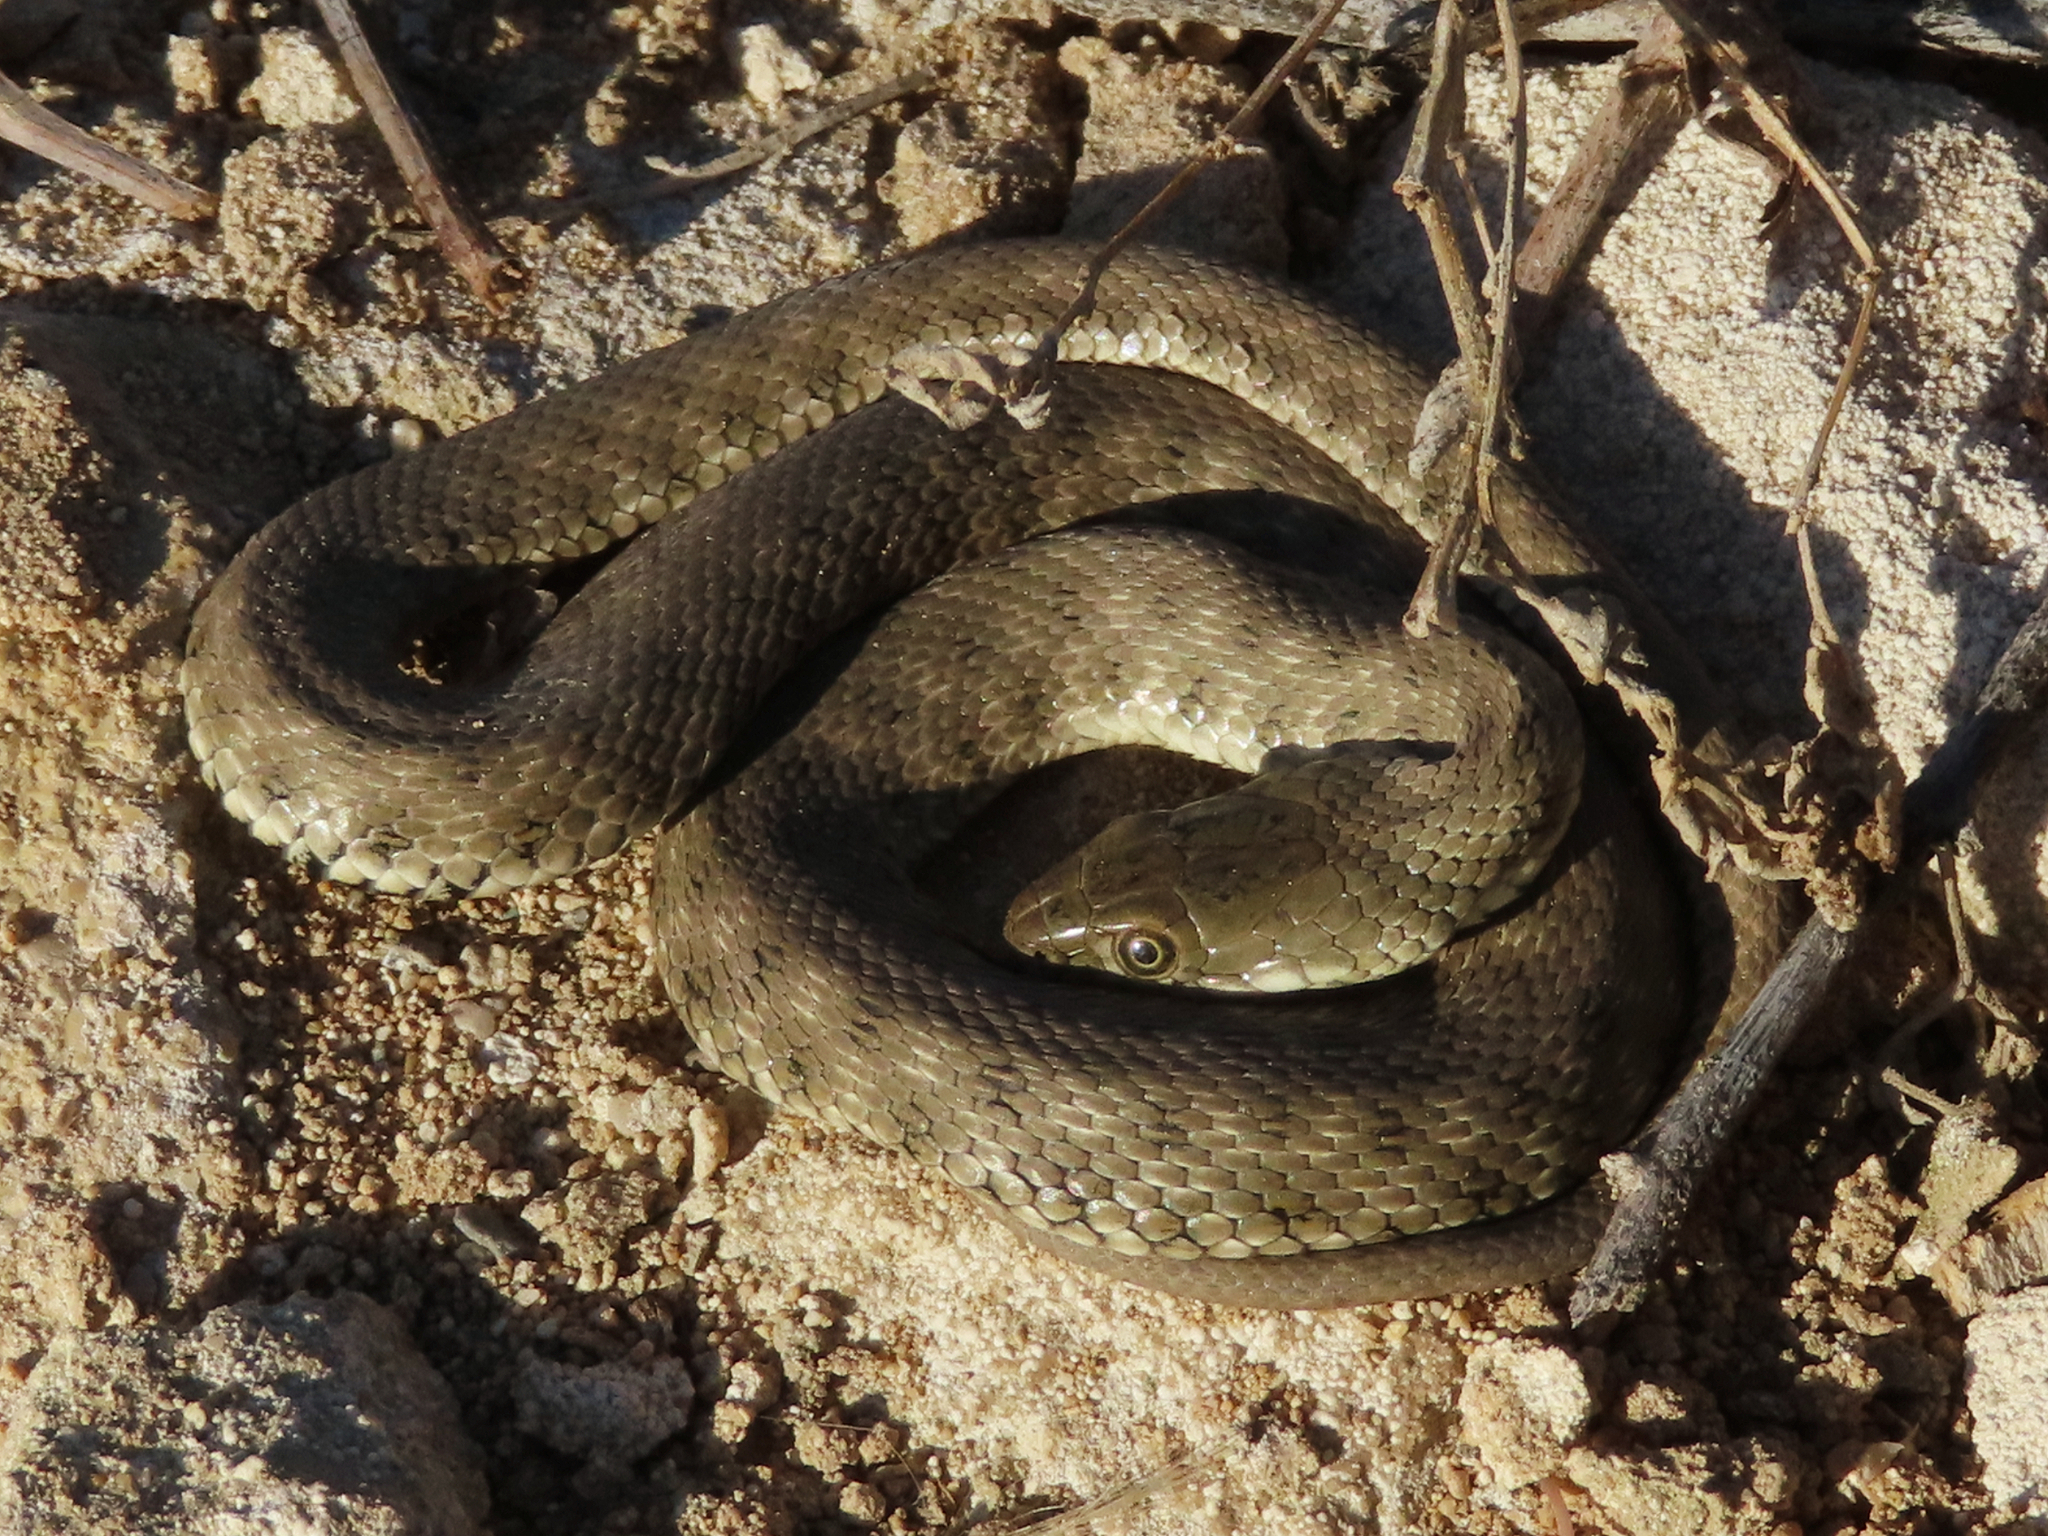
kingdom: Animalia
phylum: Chordata
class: Squamata
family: Colubridae
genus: Natrix
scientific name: Natrix tessellata
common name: Dice snake
